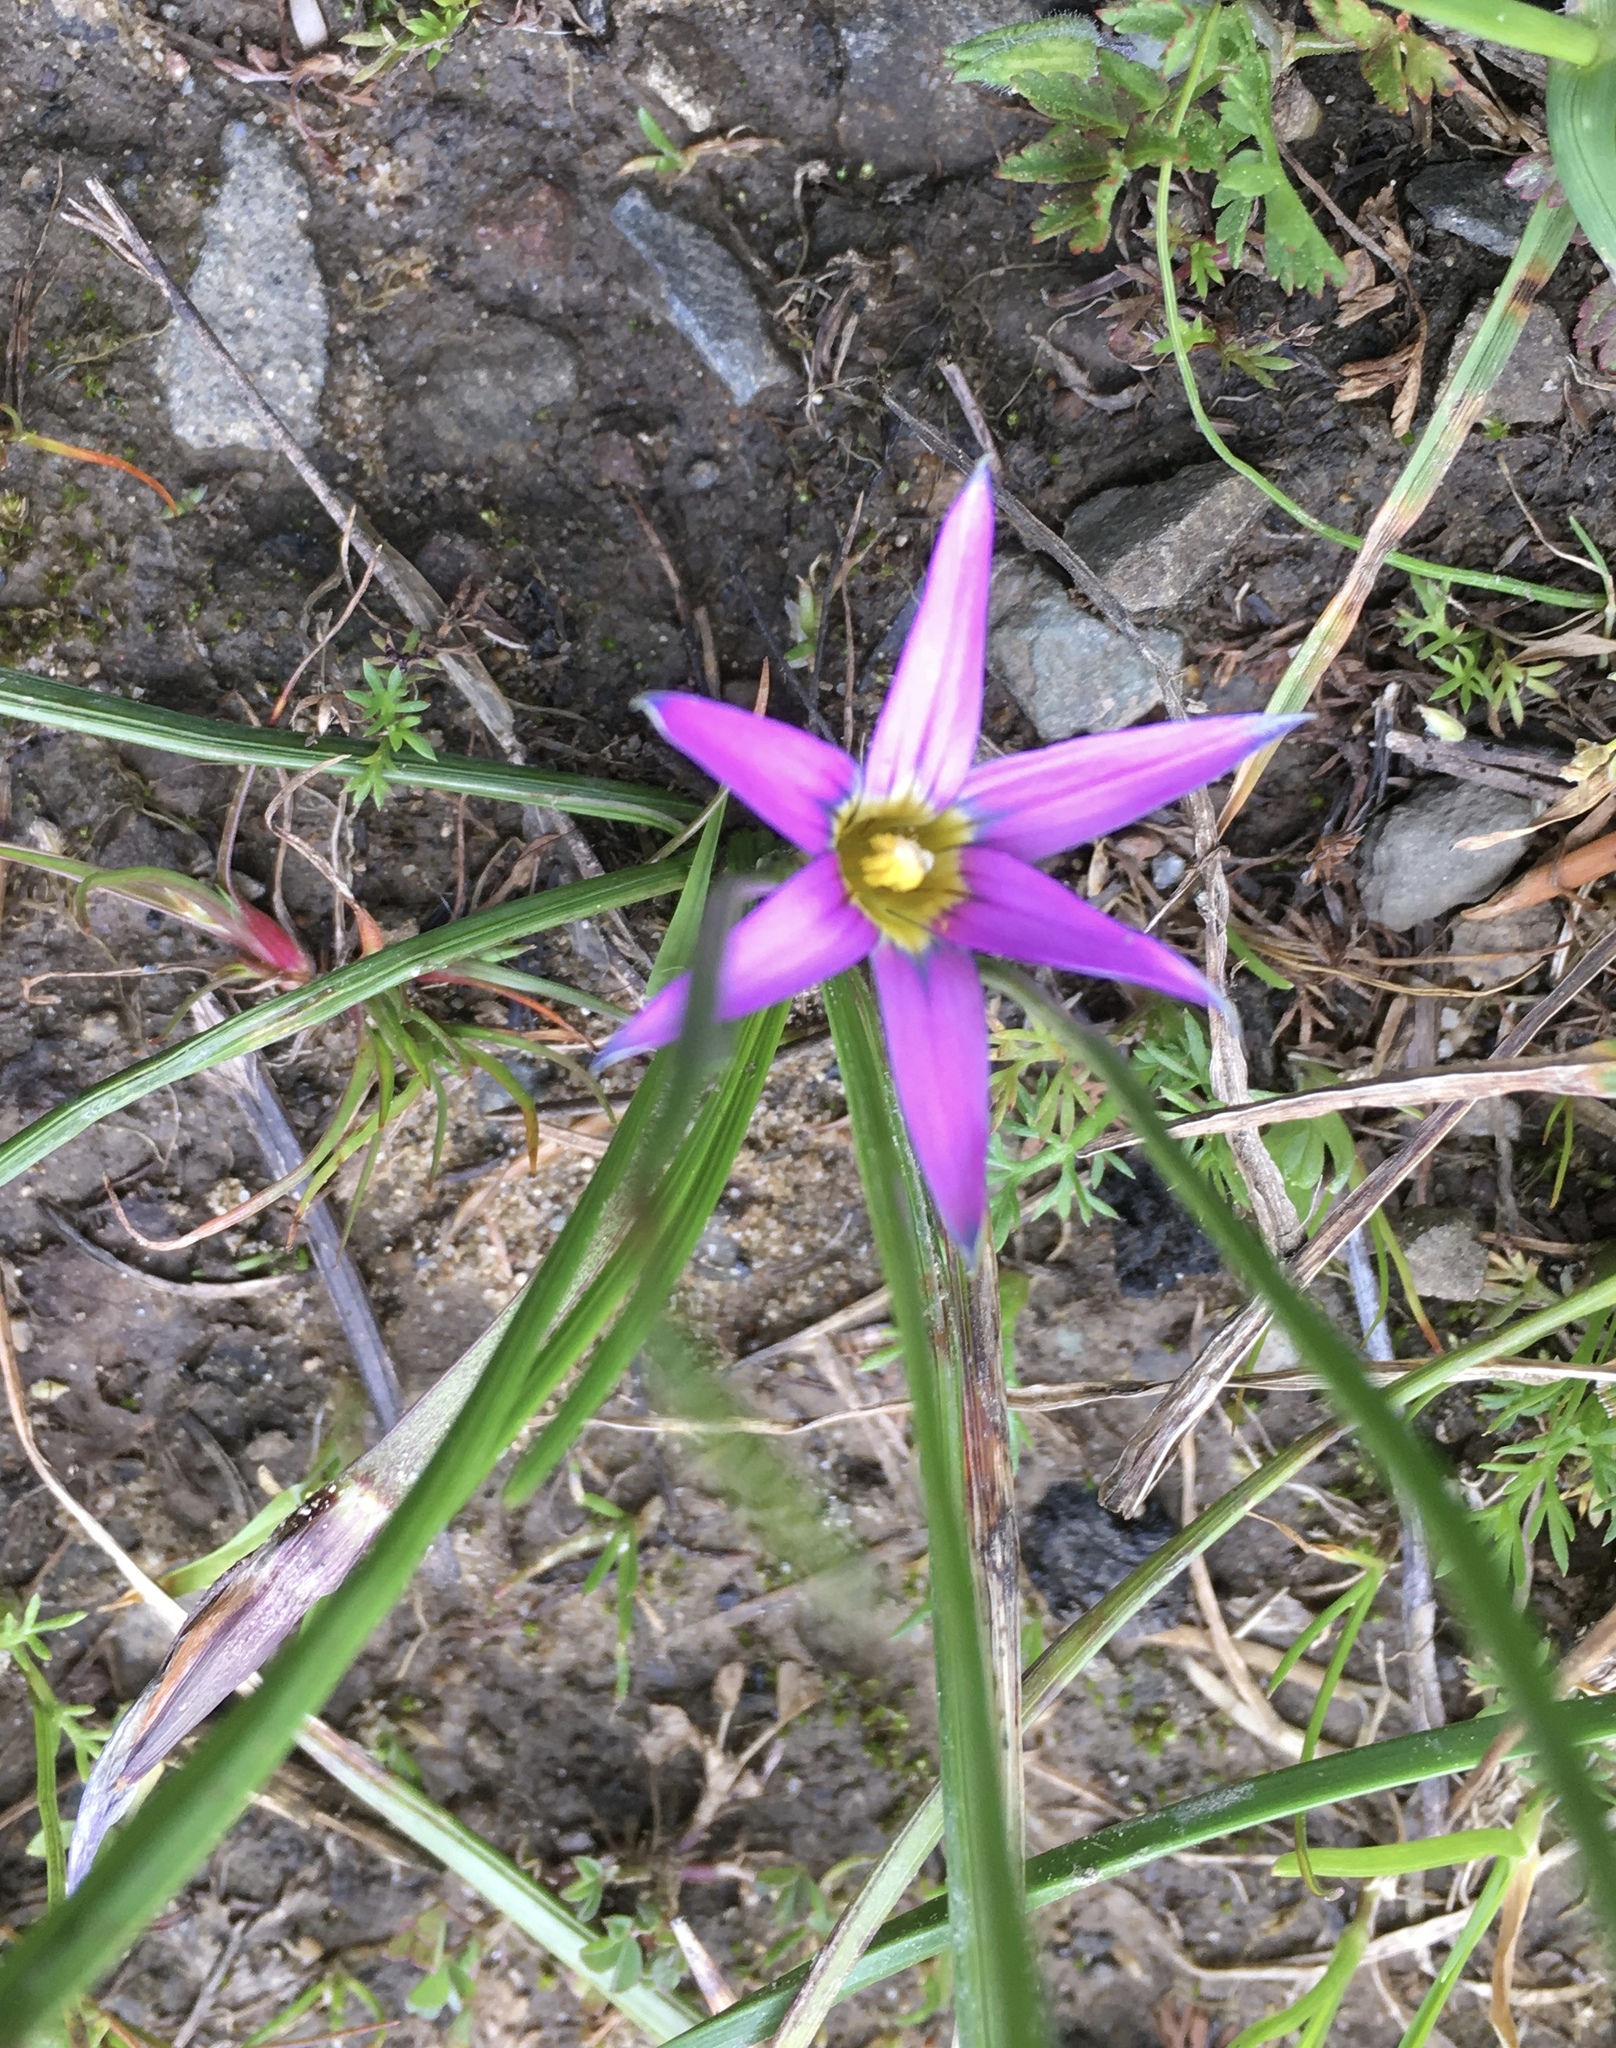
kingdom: Plantae
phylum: Tracheophyta
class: Liliopsida
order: Asparagales
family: Iridaceae
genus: Romulea
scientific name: Romulea rosea
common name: Oniongrass
